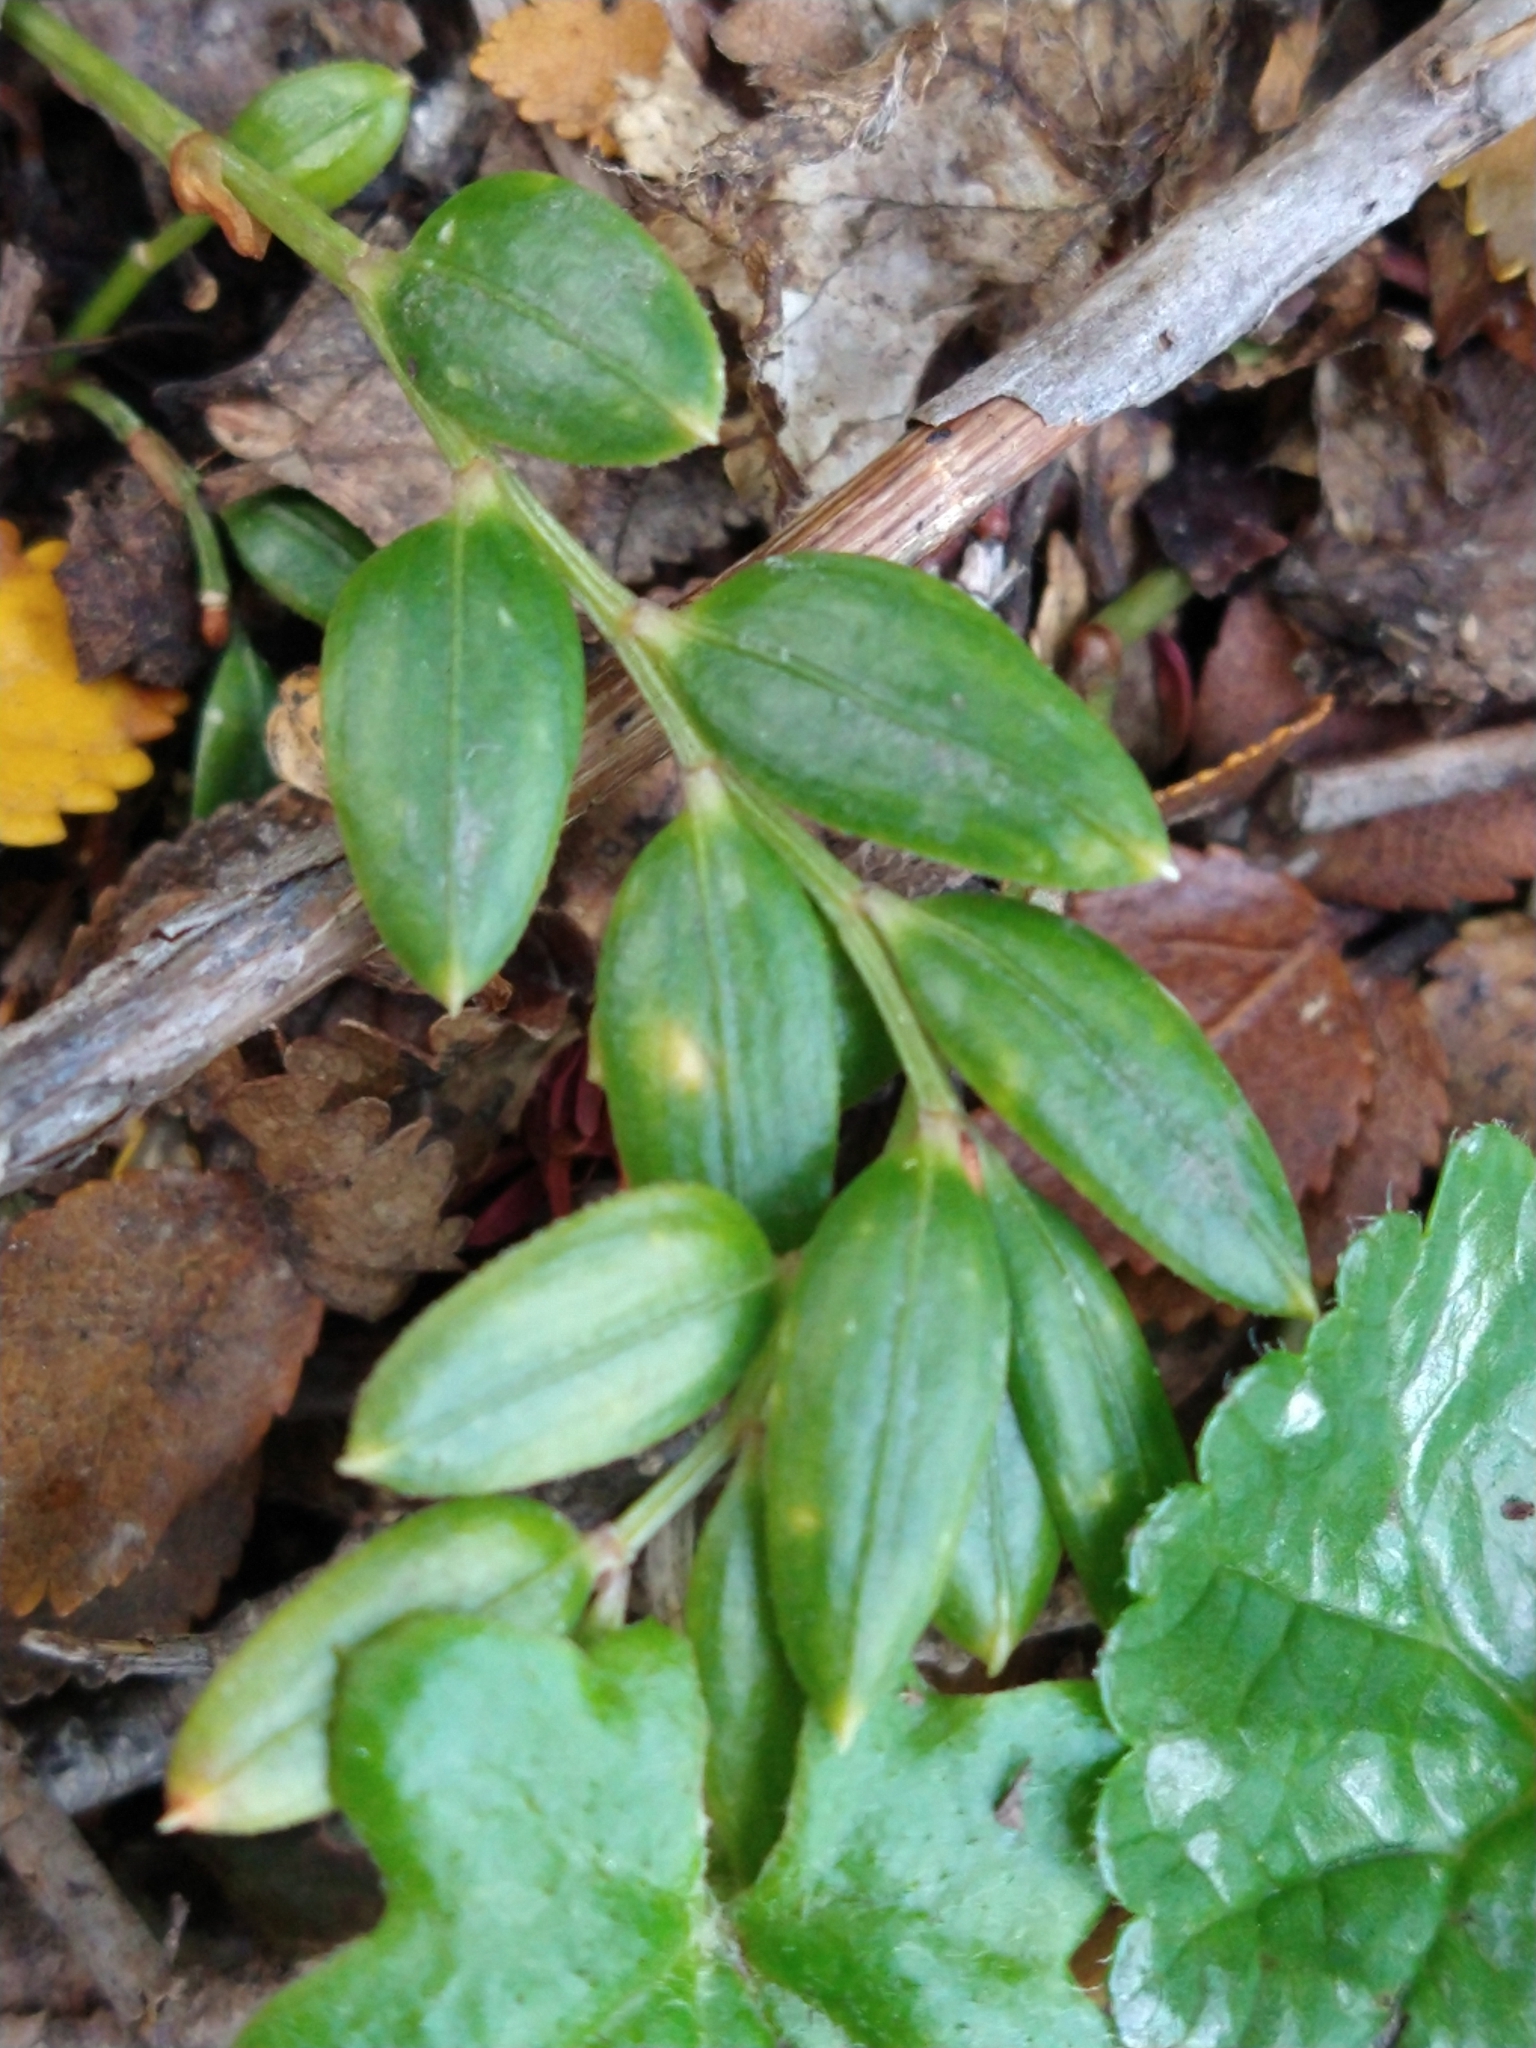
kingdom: Plantae
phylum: Tracheophyta
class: Liliopsida
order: Liliales
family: Alstroemeriaceae
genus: Luzuriaga
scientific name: Luzuriaga marginata
